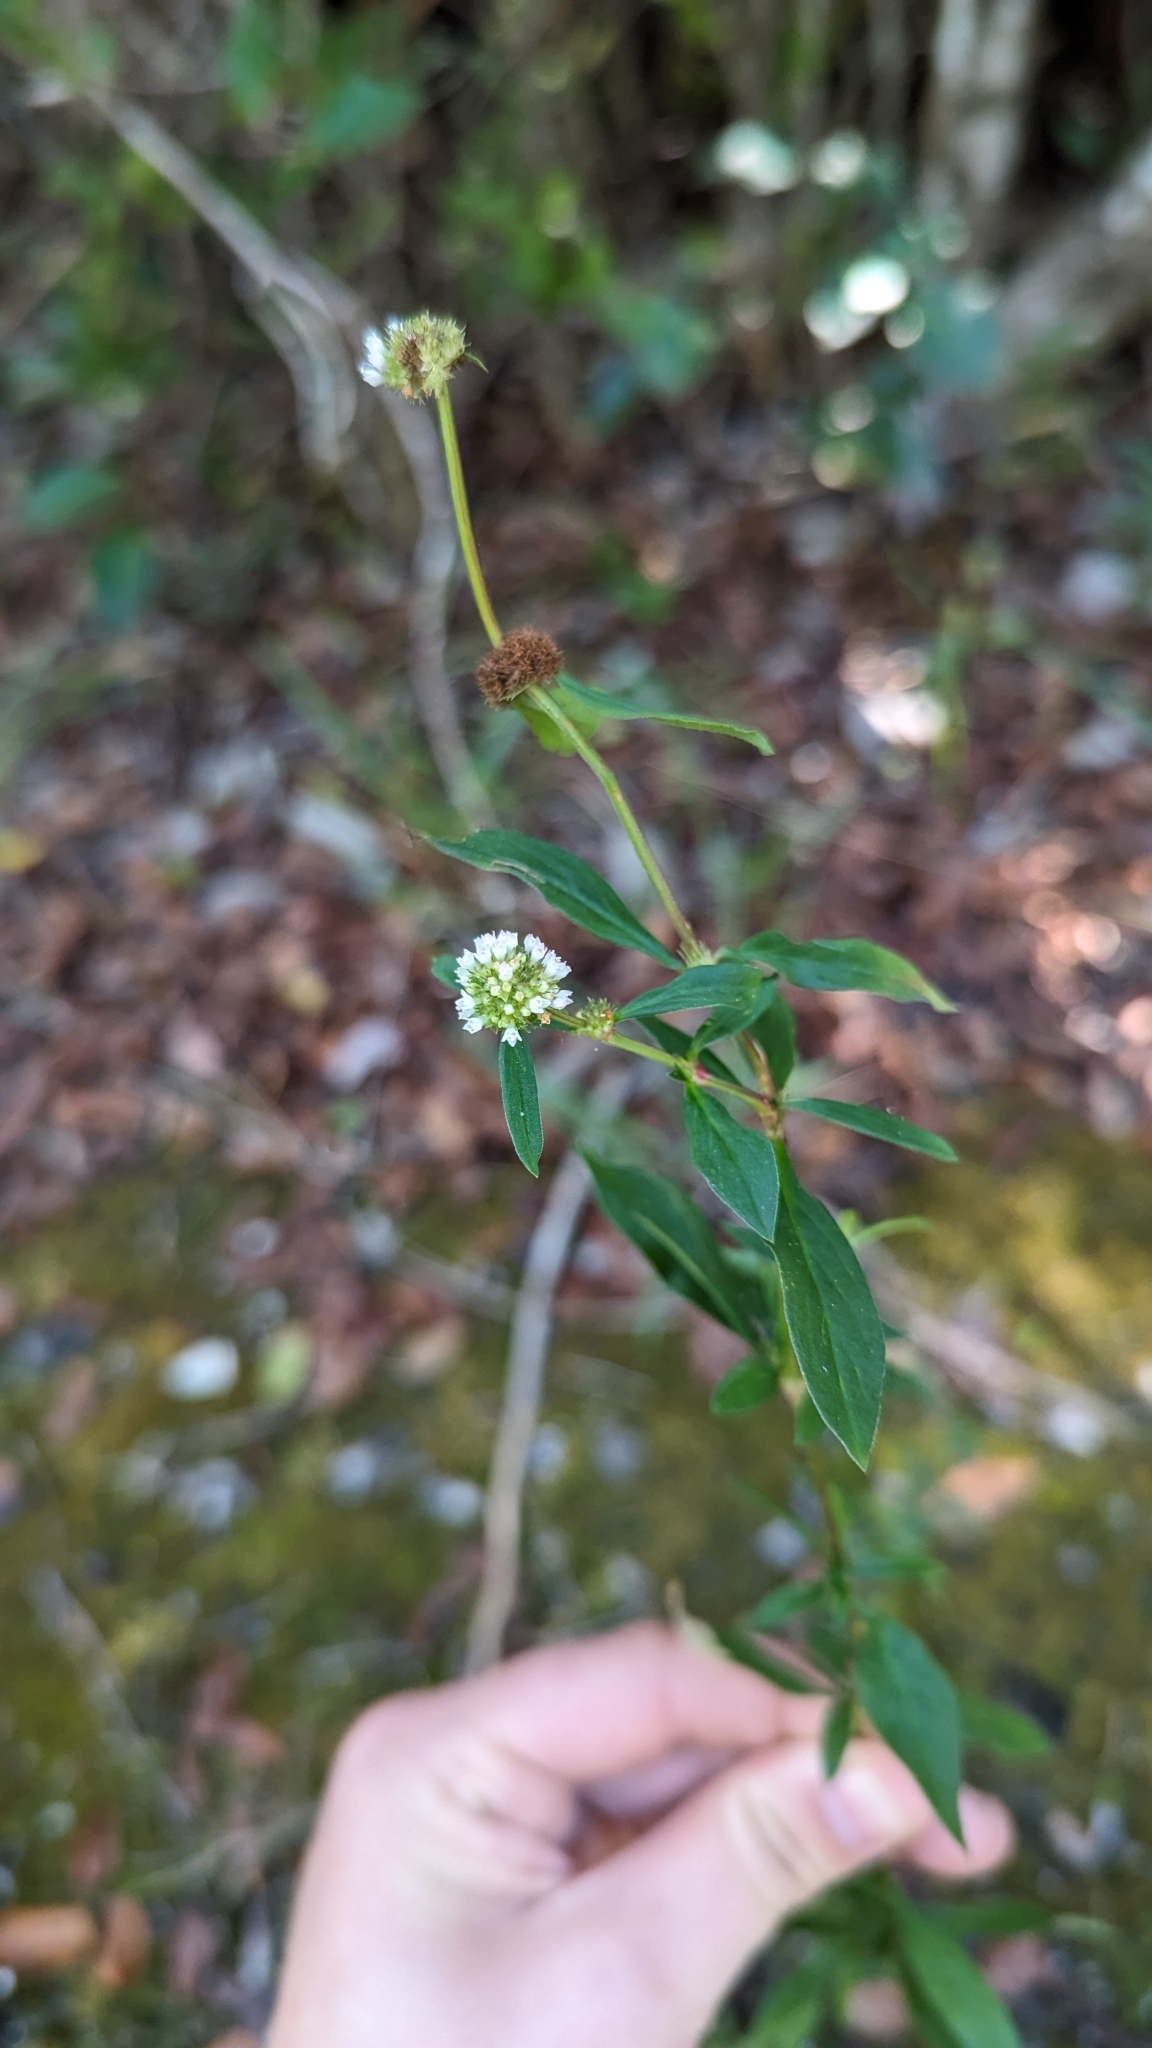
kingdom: Plantae
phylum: Tracheophyta
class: Magnoliopsida
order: Gentianales
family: Rubiaceae
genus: Spermacoce
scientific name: Spermacoce verticillata
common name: Shrubby false buttonweed
